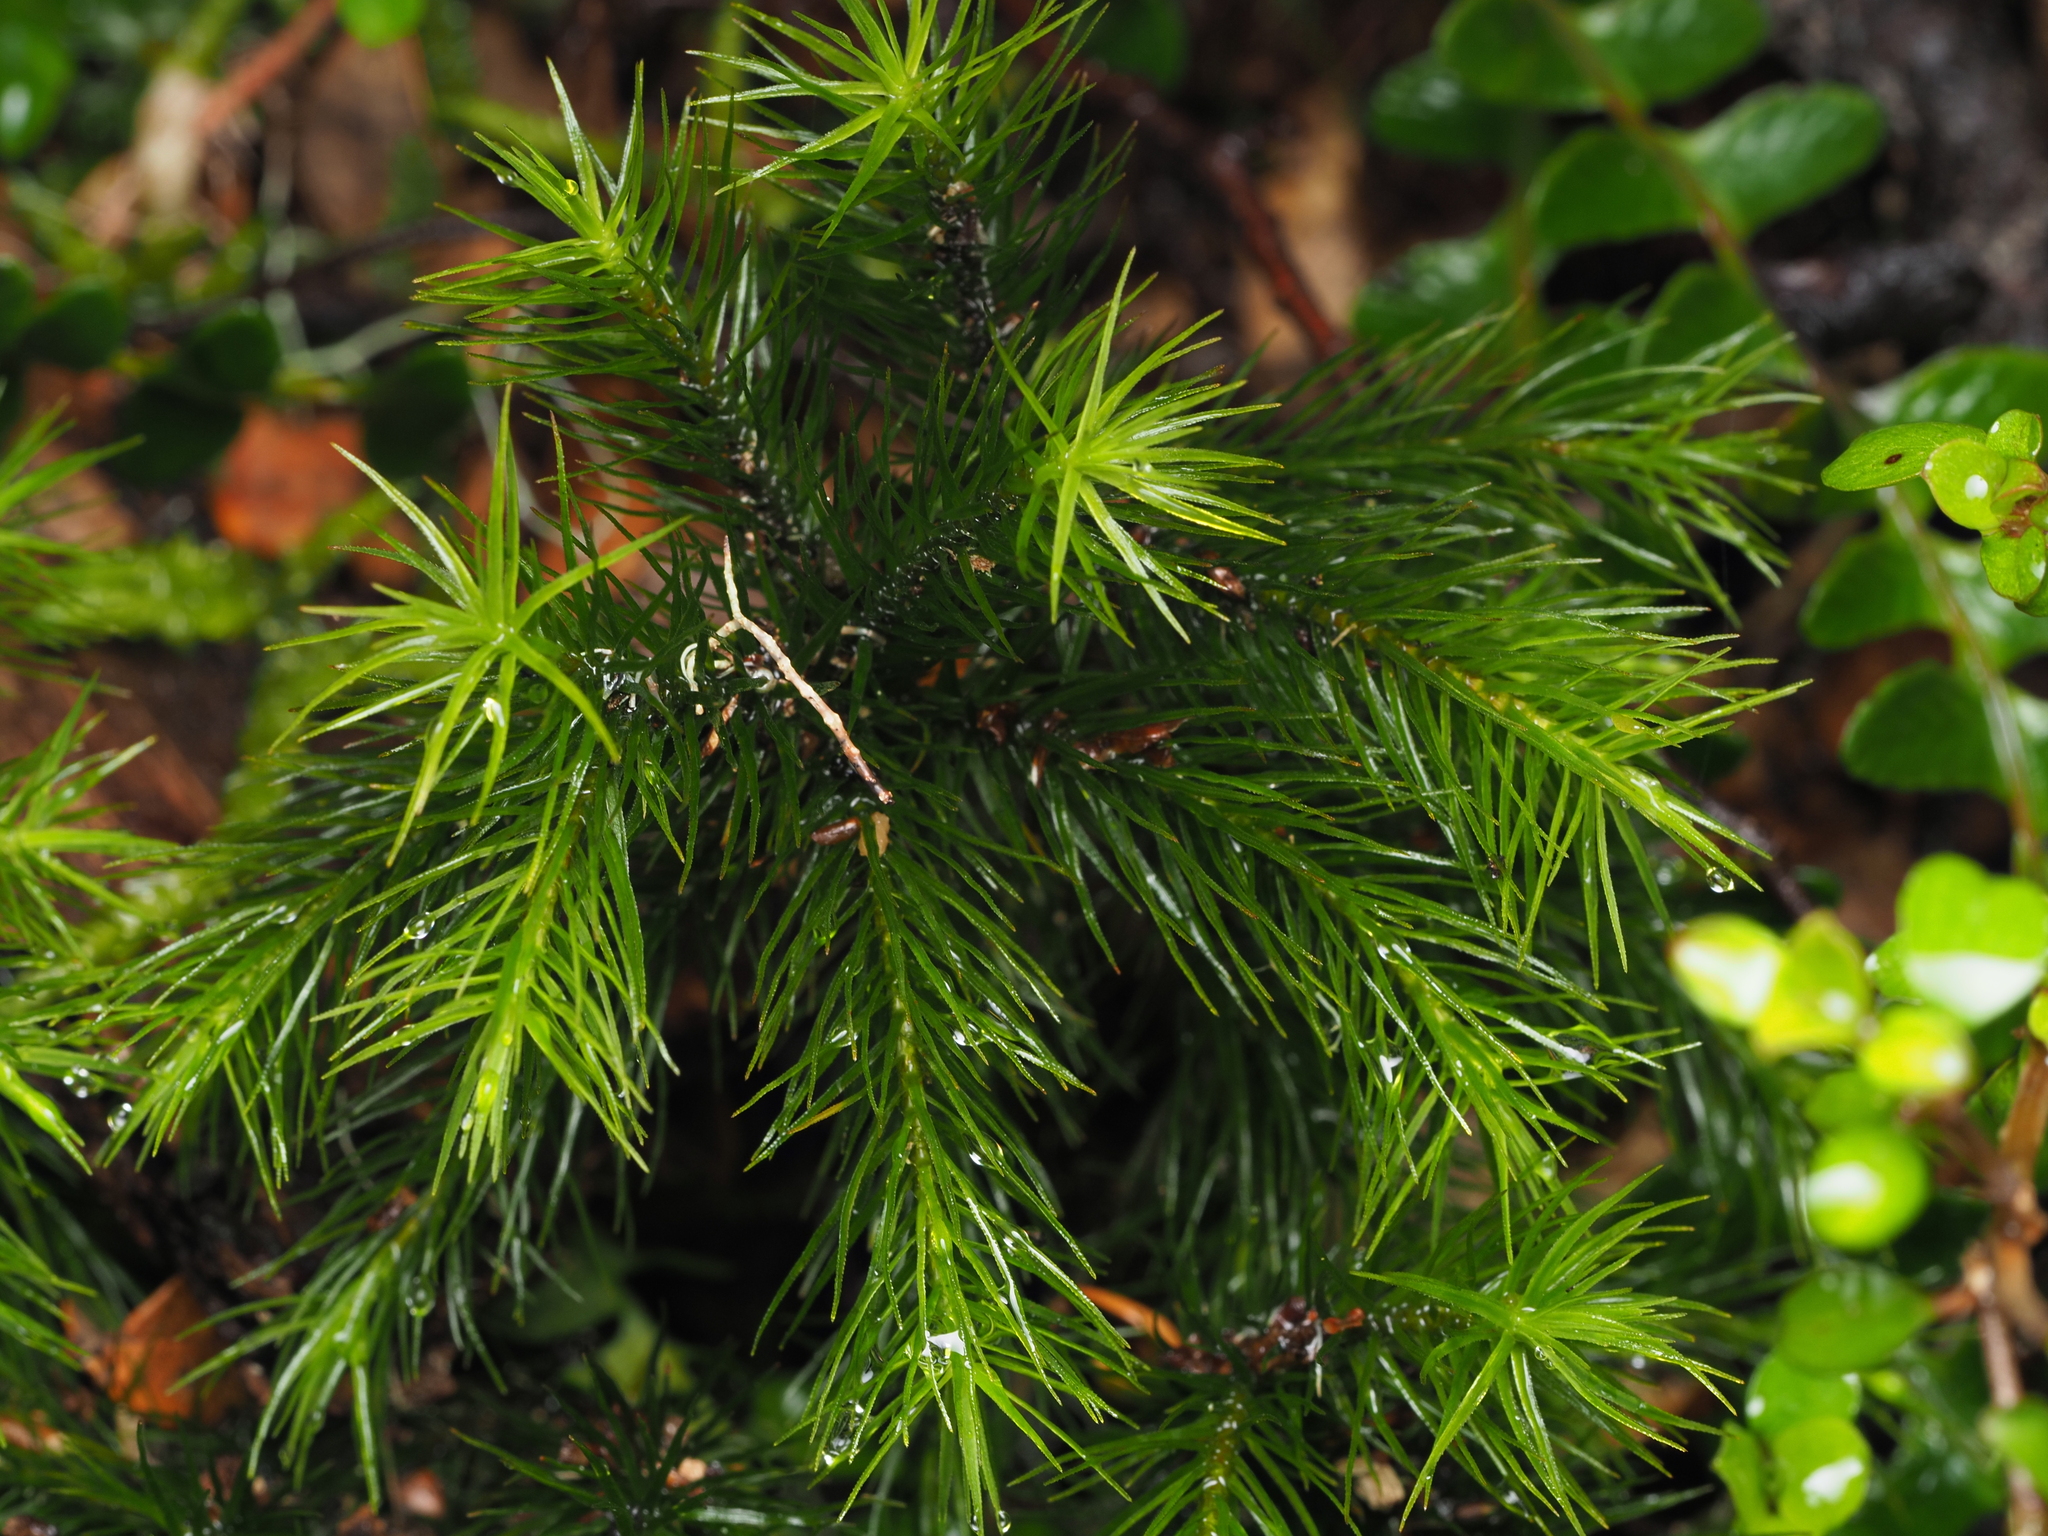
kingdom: Plantae
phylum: Bryophyta
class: Polytrichopsida
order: Polytrichales
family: Polytrichaceae
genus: Dendroligotrichum
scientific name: Dendroligotrichum tongariroense
